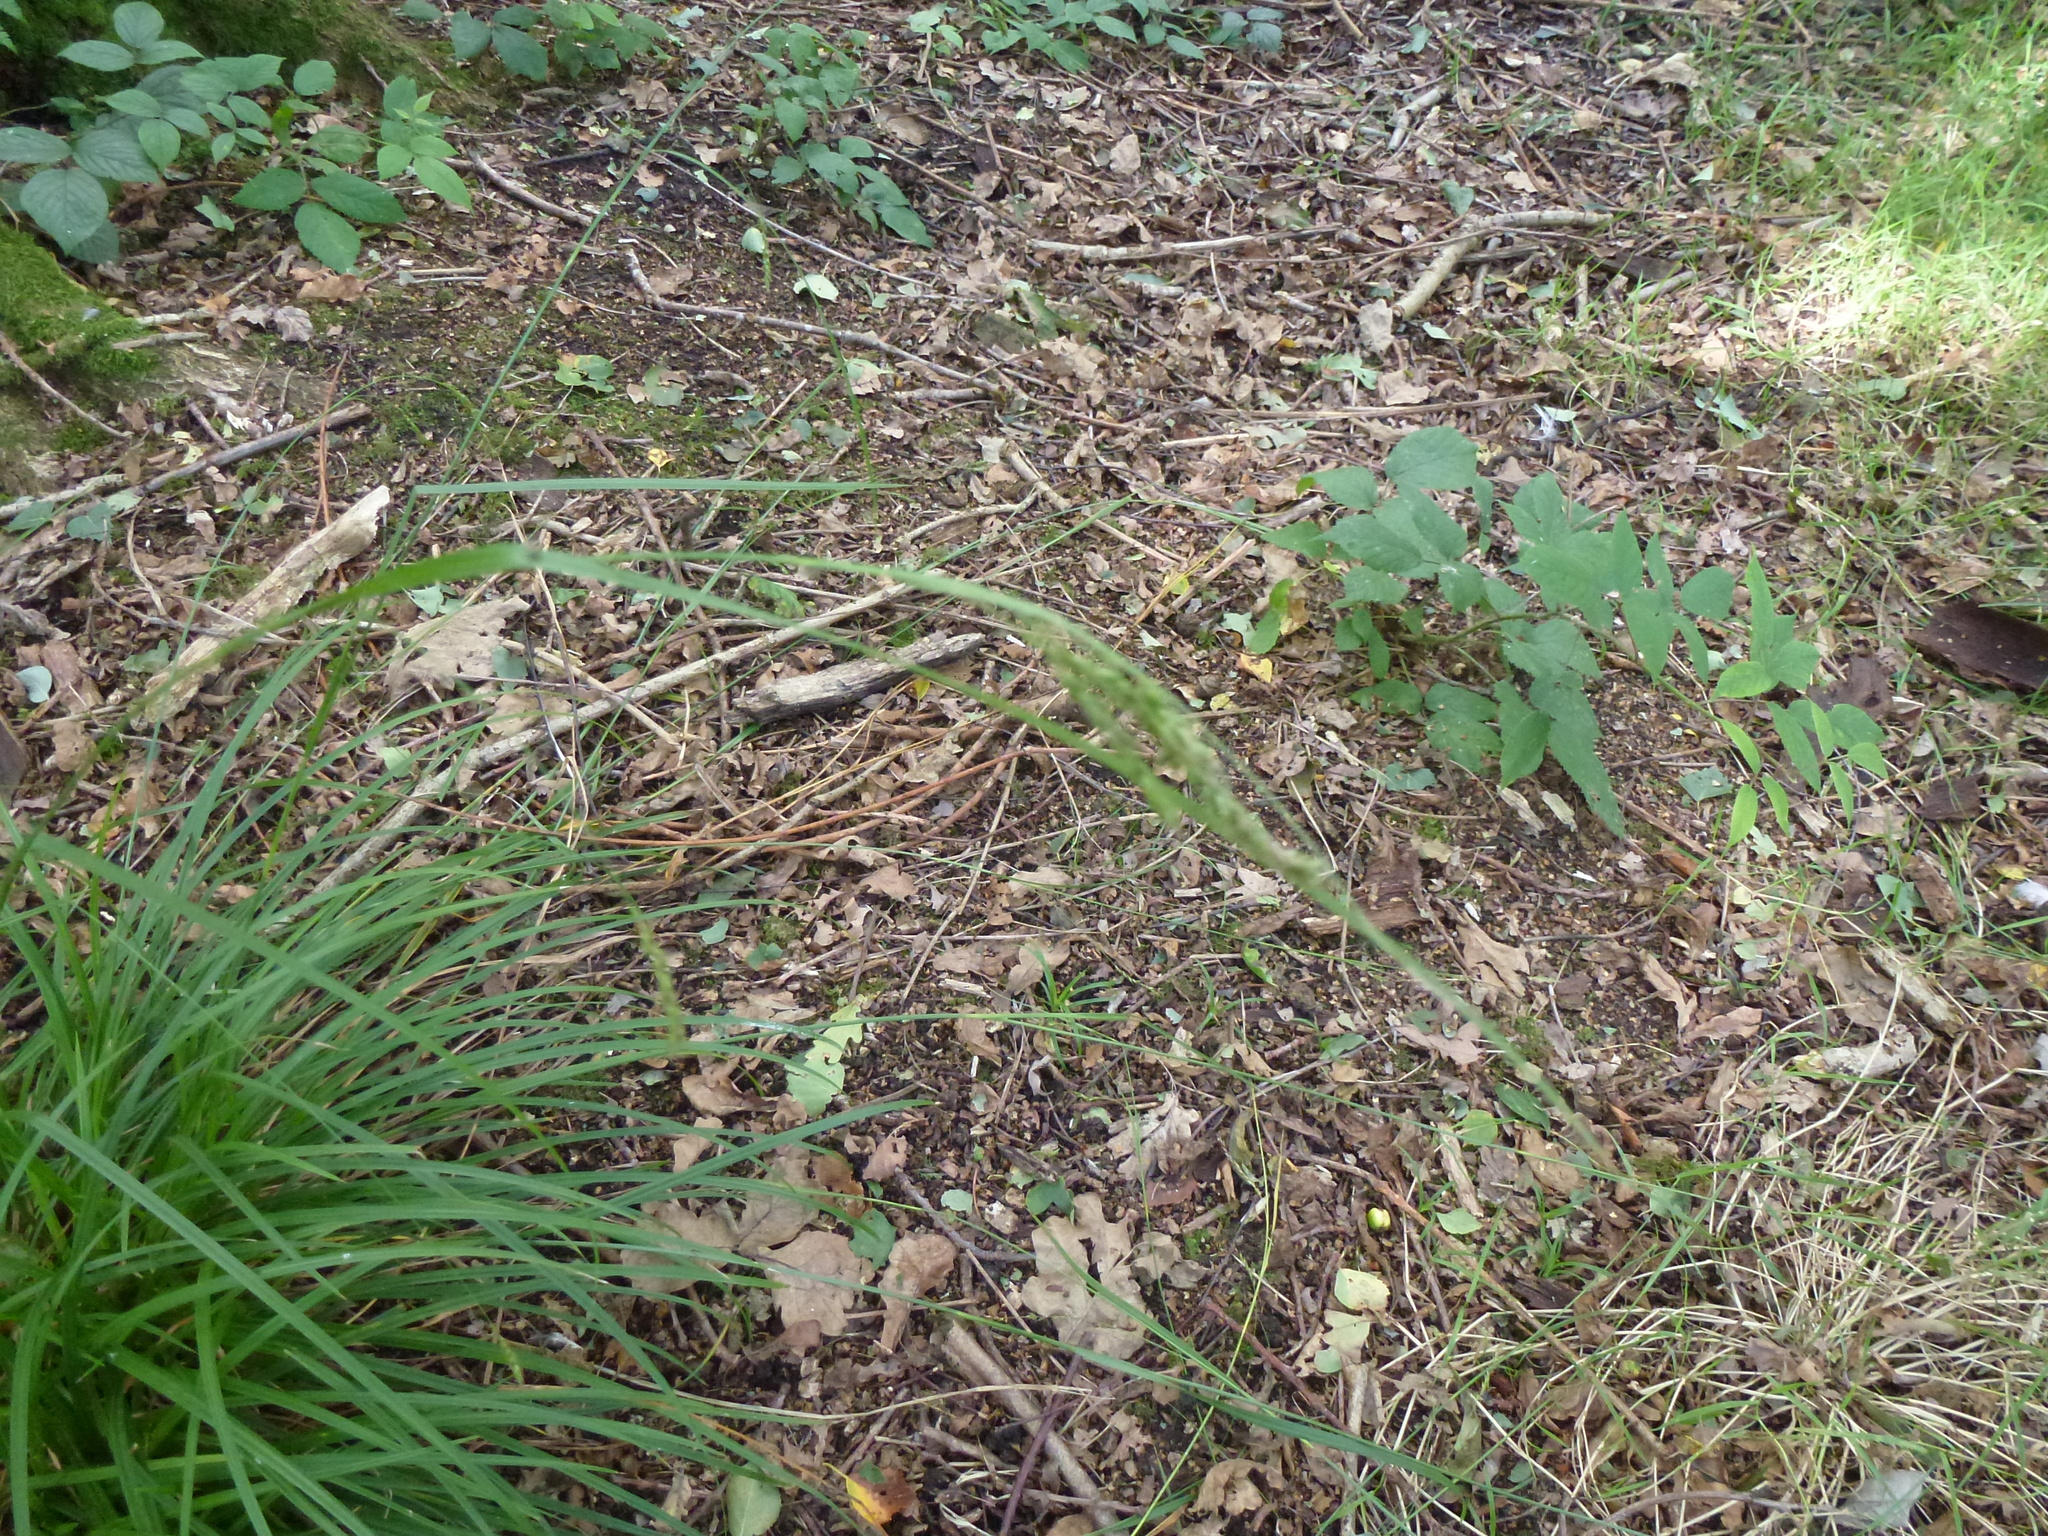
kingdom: Plantae
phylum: Tracheophyta
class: Liliopsida
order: Poales
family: Cyperaceae
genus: Carex
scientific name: Carex sylvatica
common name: Wood-sedge
